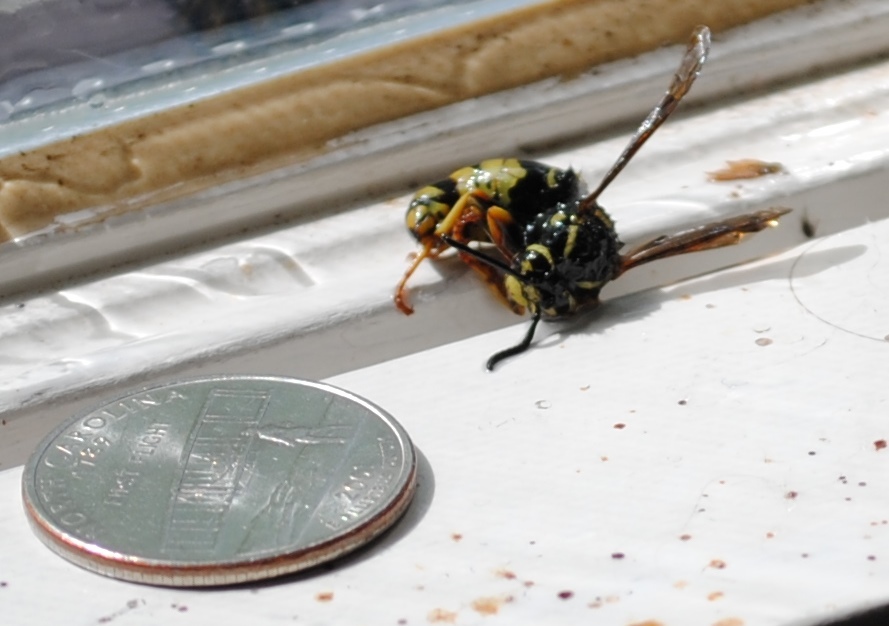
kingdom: Animalia
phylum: Arthropoda
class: Insecta
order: Hymenoptera
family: Vespidae
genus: Vespula
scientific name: Vespula
